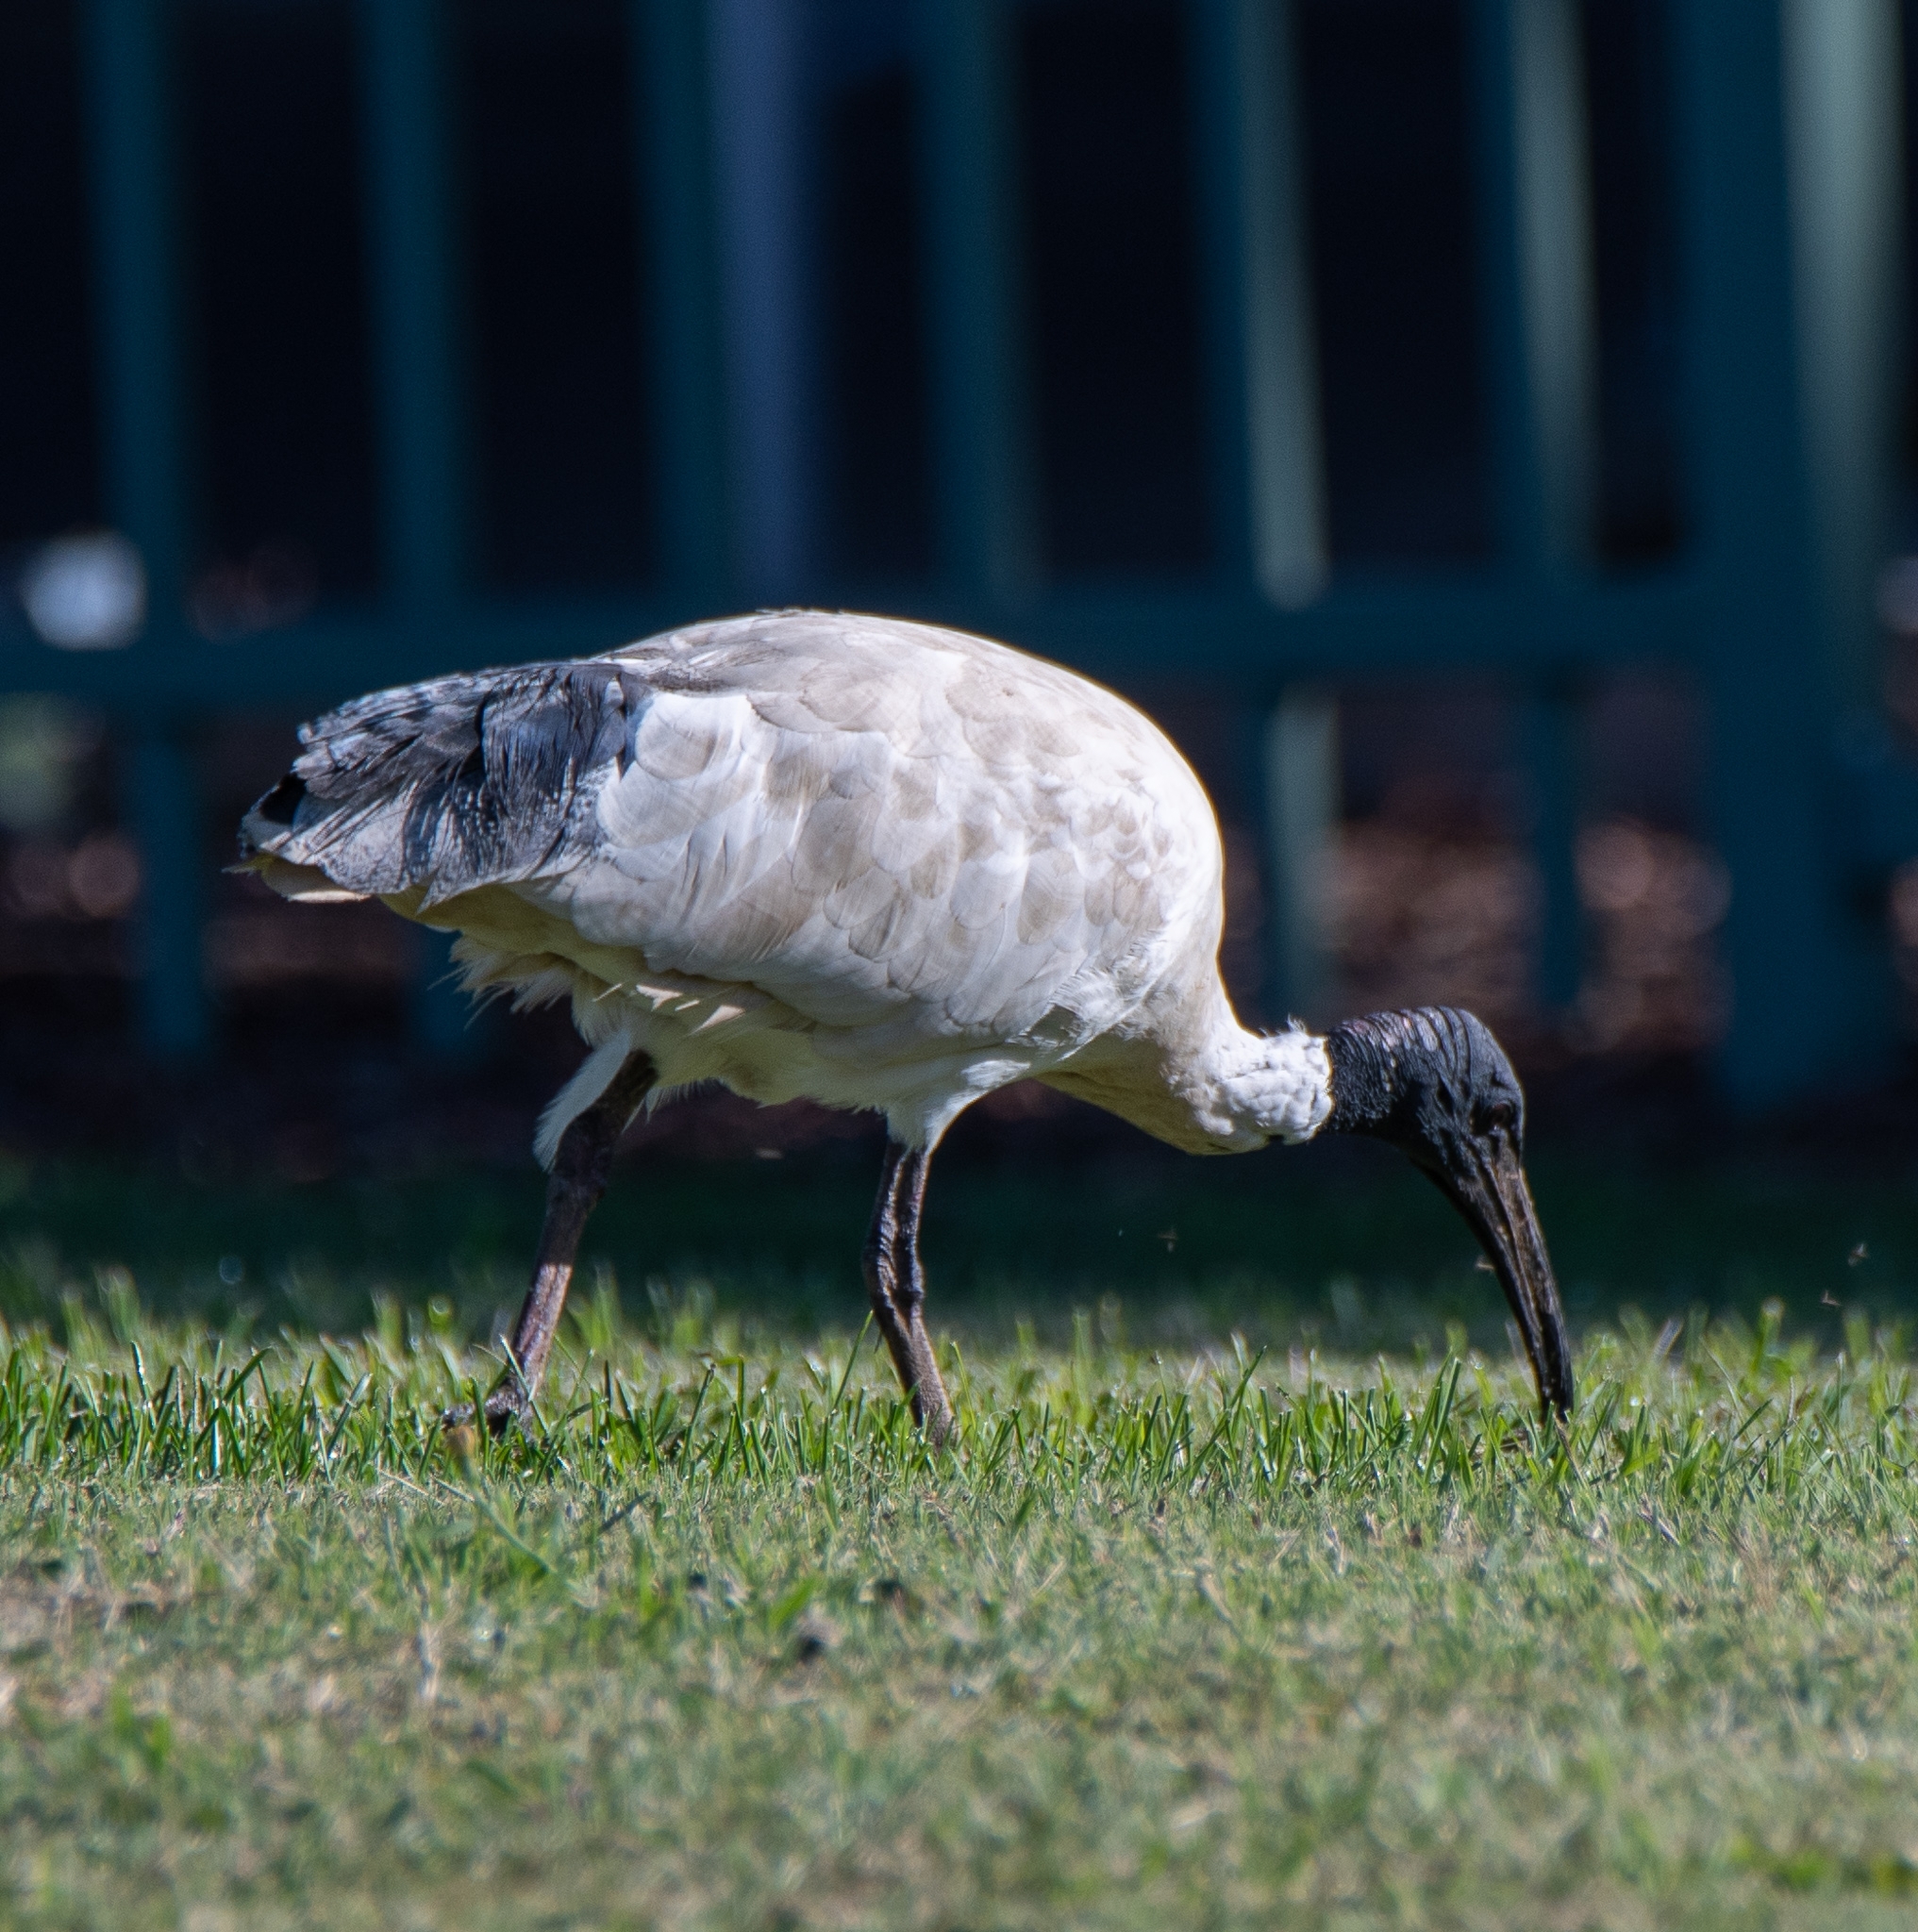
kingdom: Animalia
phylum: Chordata
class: Aves
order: Pelecaniformes
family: Threskiornithidae
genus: Threskiornis
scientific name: Threskiornis molucca
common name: Australian white ibis
